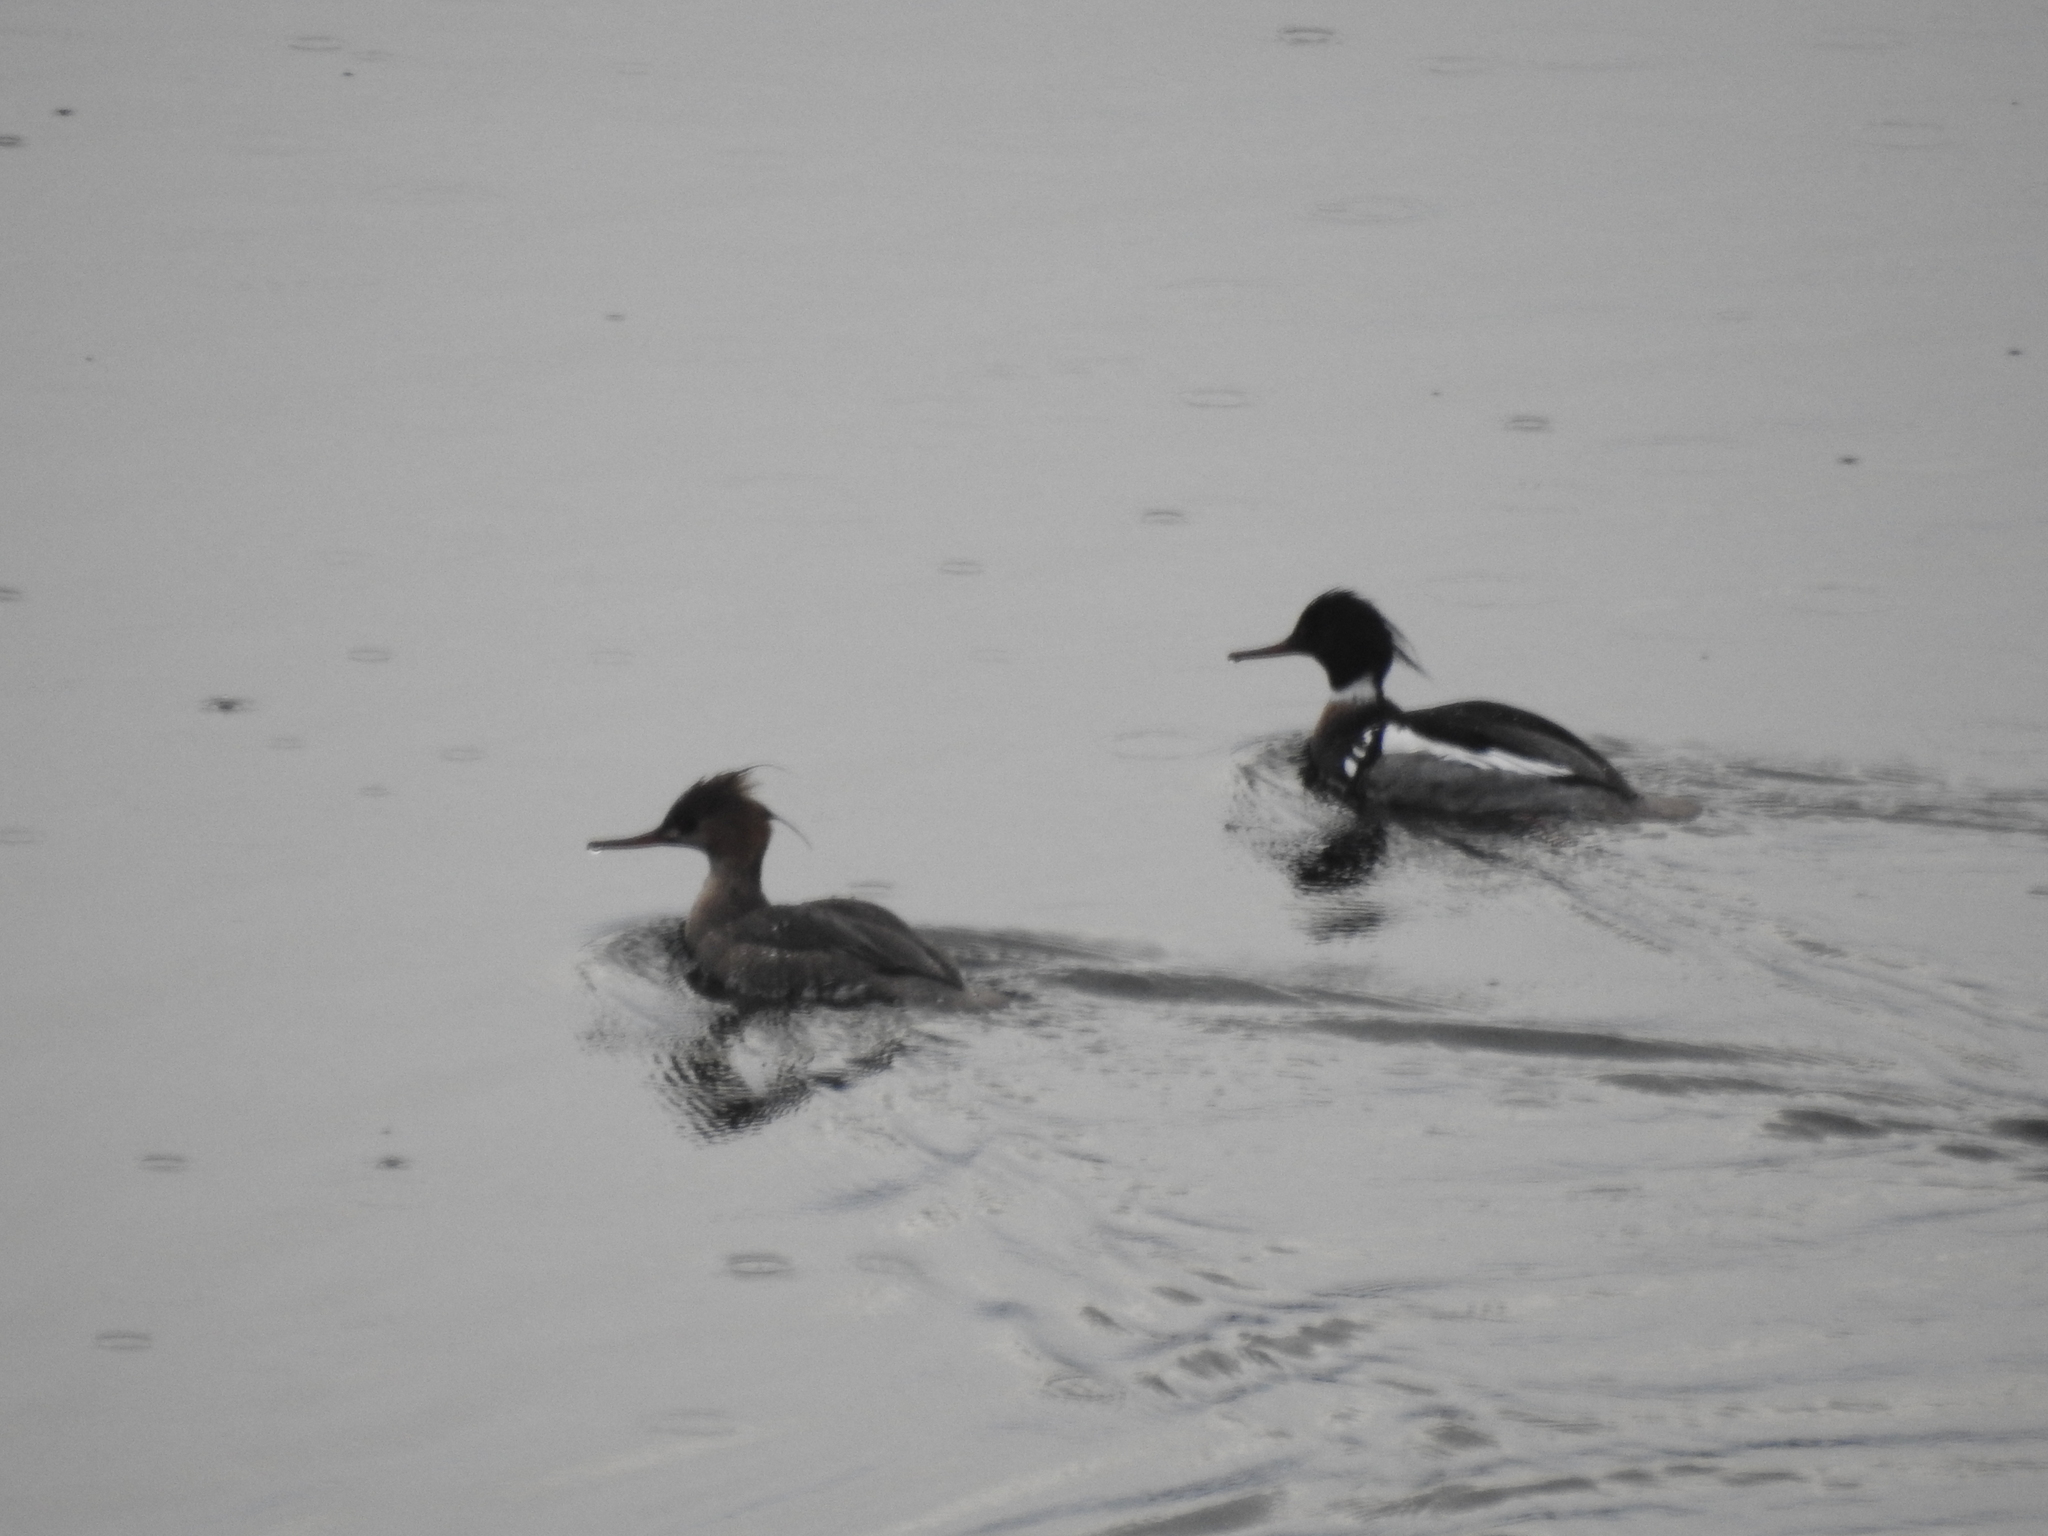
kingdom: Animalia
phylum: Chordata
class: Aves
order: Anseriformes
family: Anatidae
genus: Mergus
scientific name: Mergus serrator
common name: Red-breasted merganser
